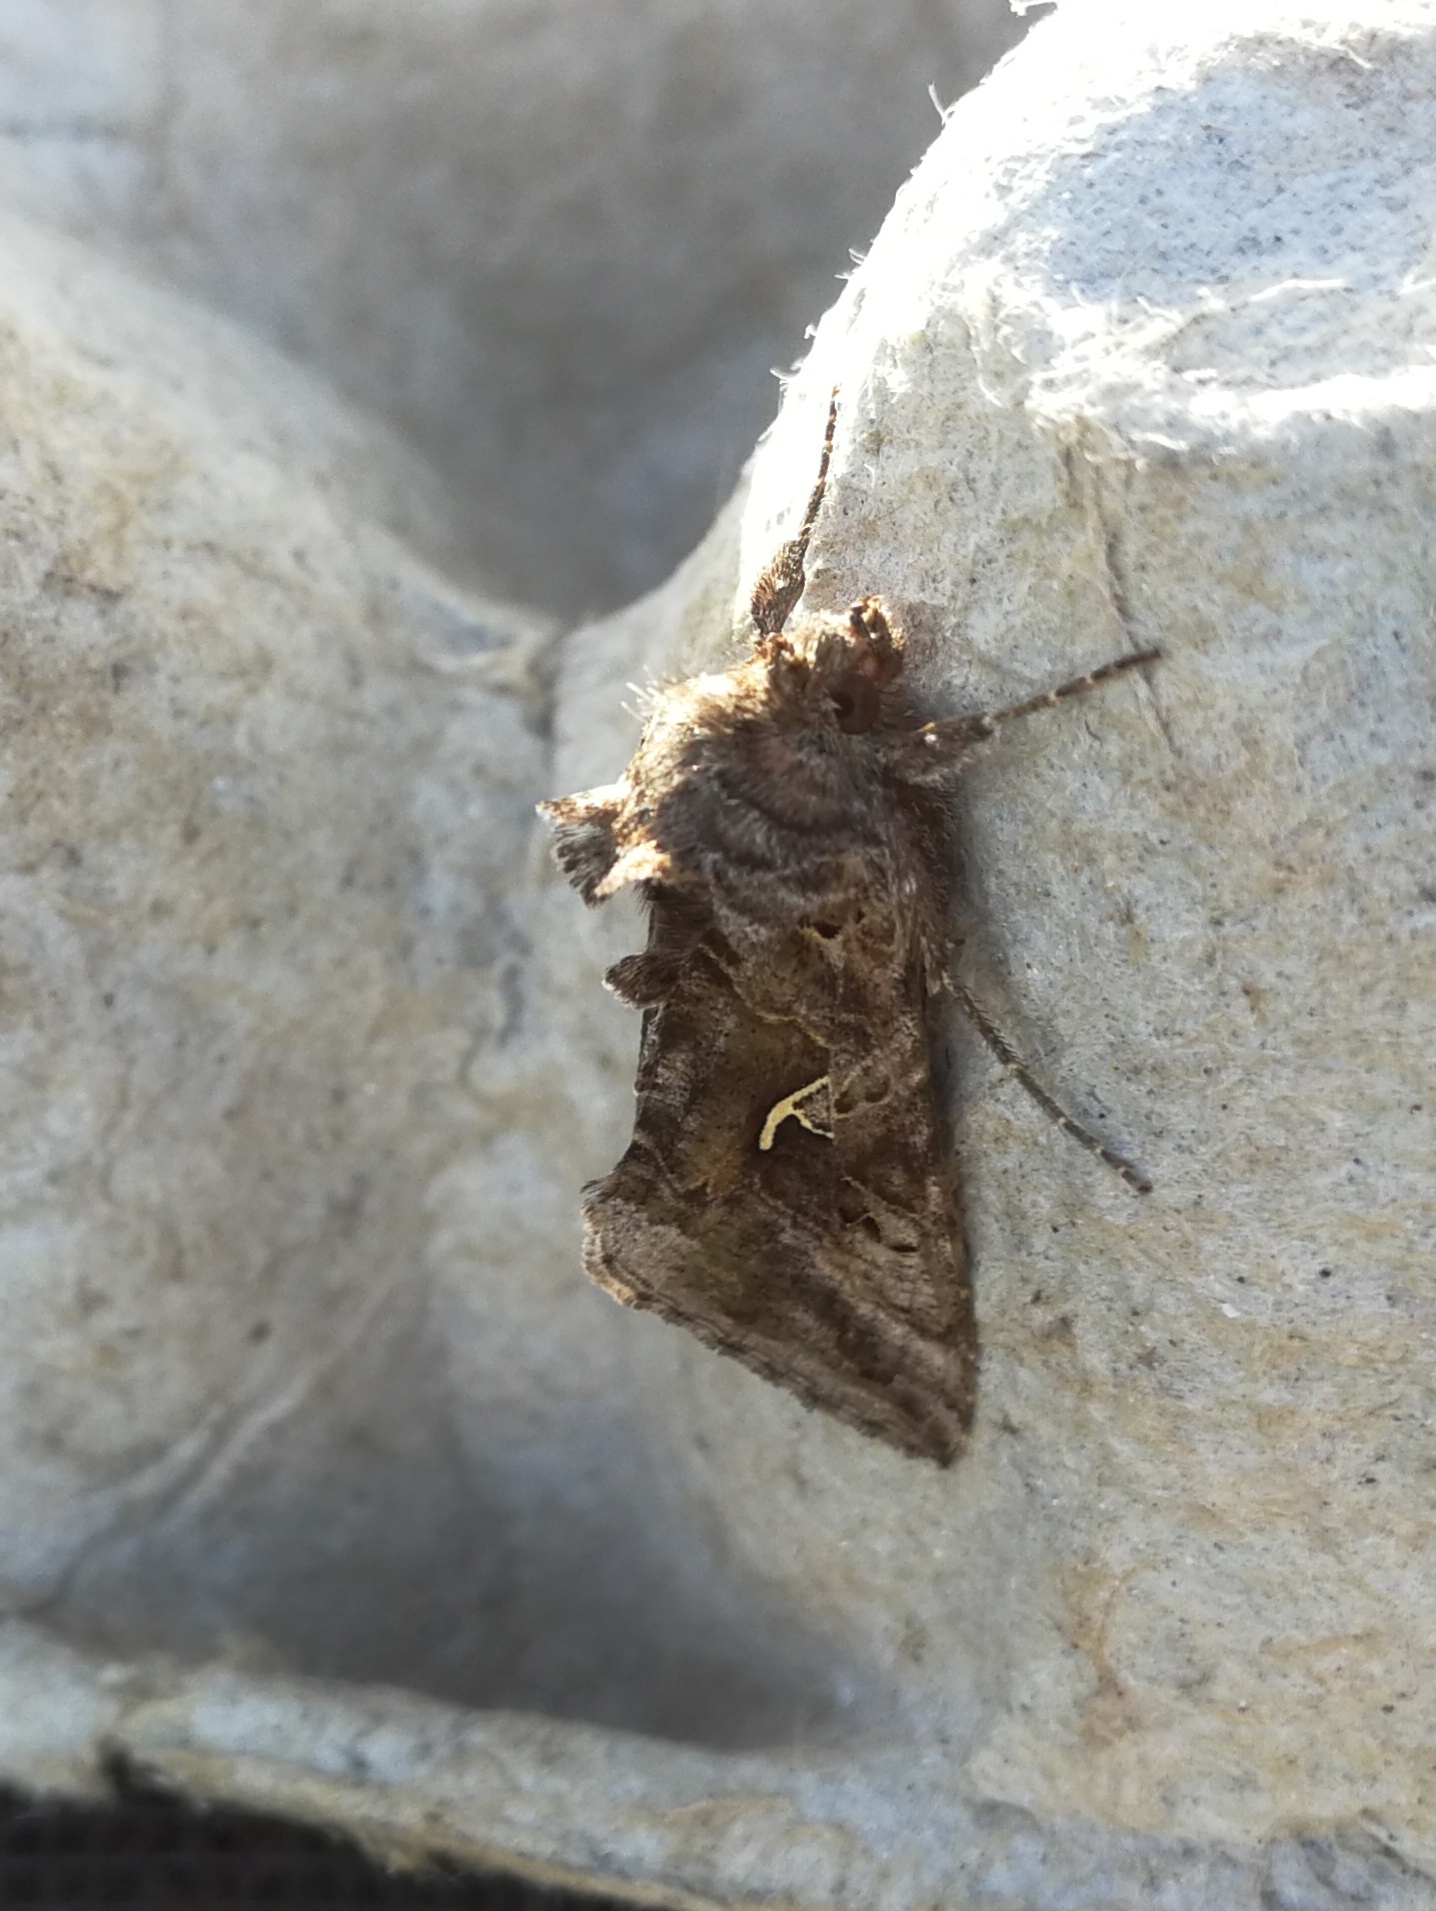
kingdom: Animalia
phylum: Arthropoda
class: Insecta
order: Lepidoptera
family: Noctuidae
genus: Autographa
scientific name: Autographa gamma
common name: Silver y
